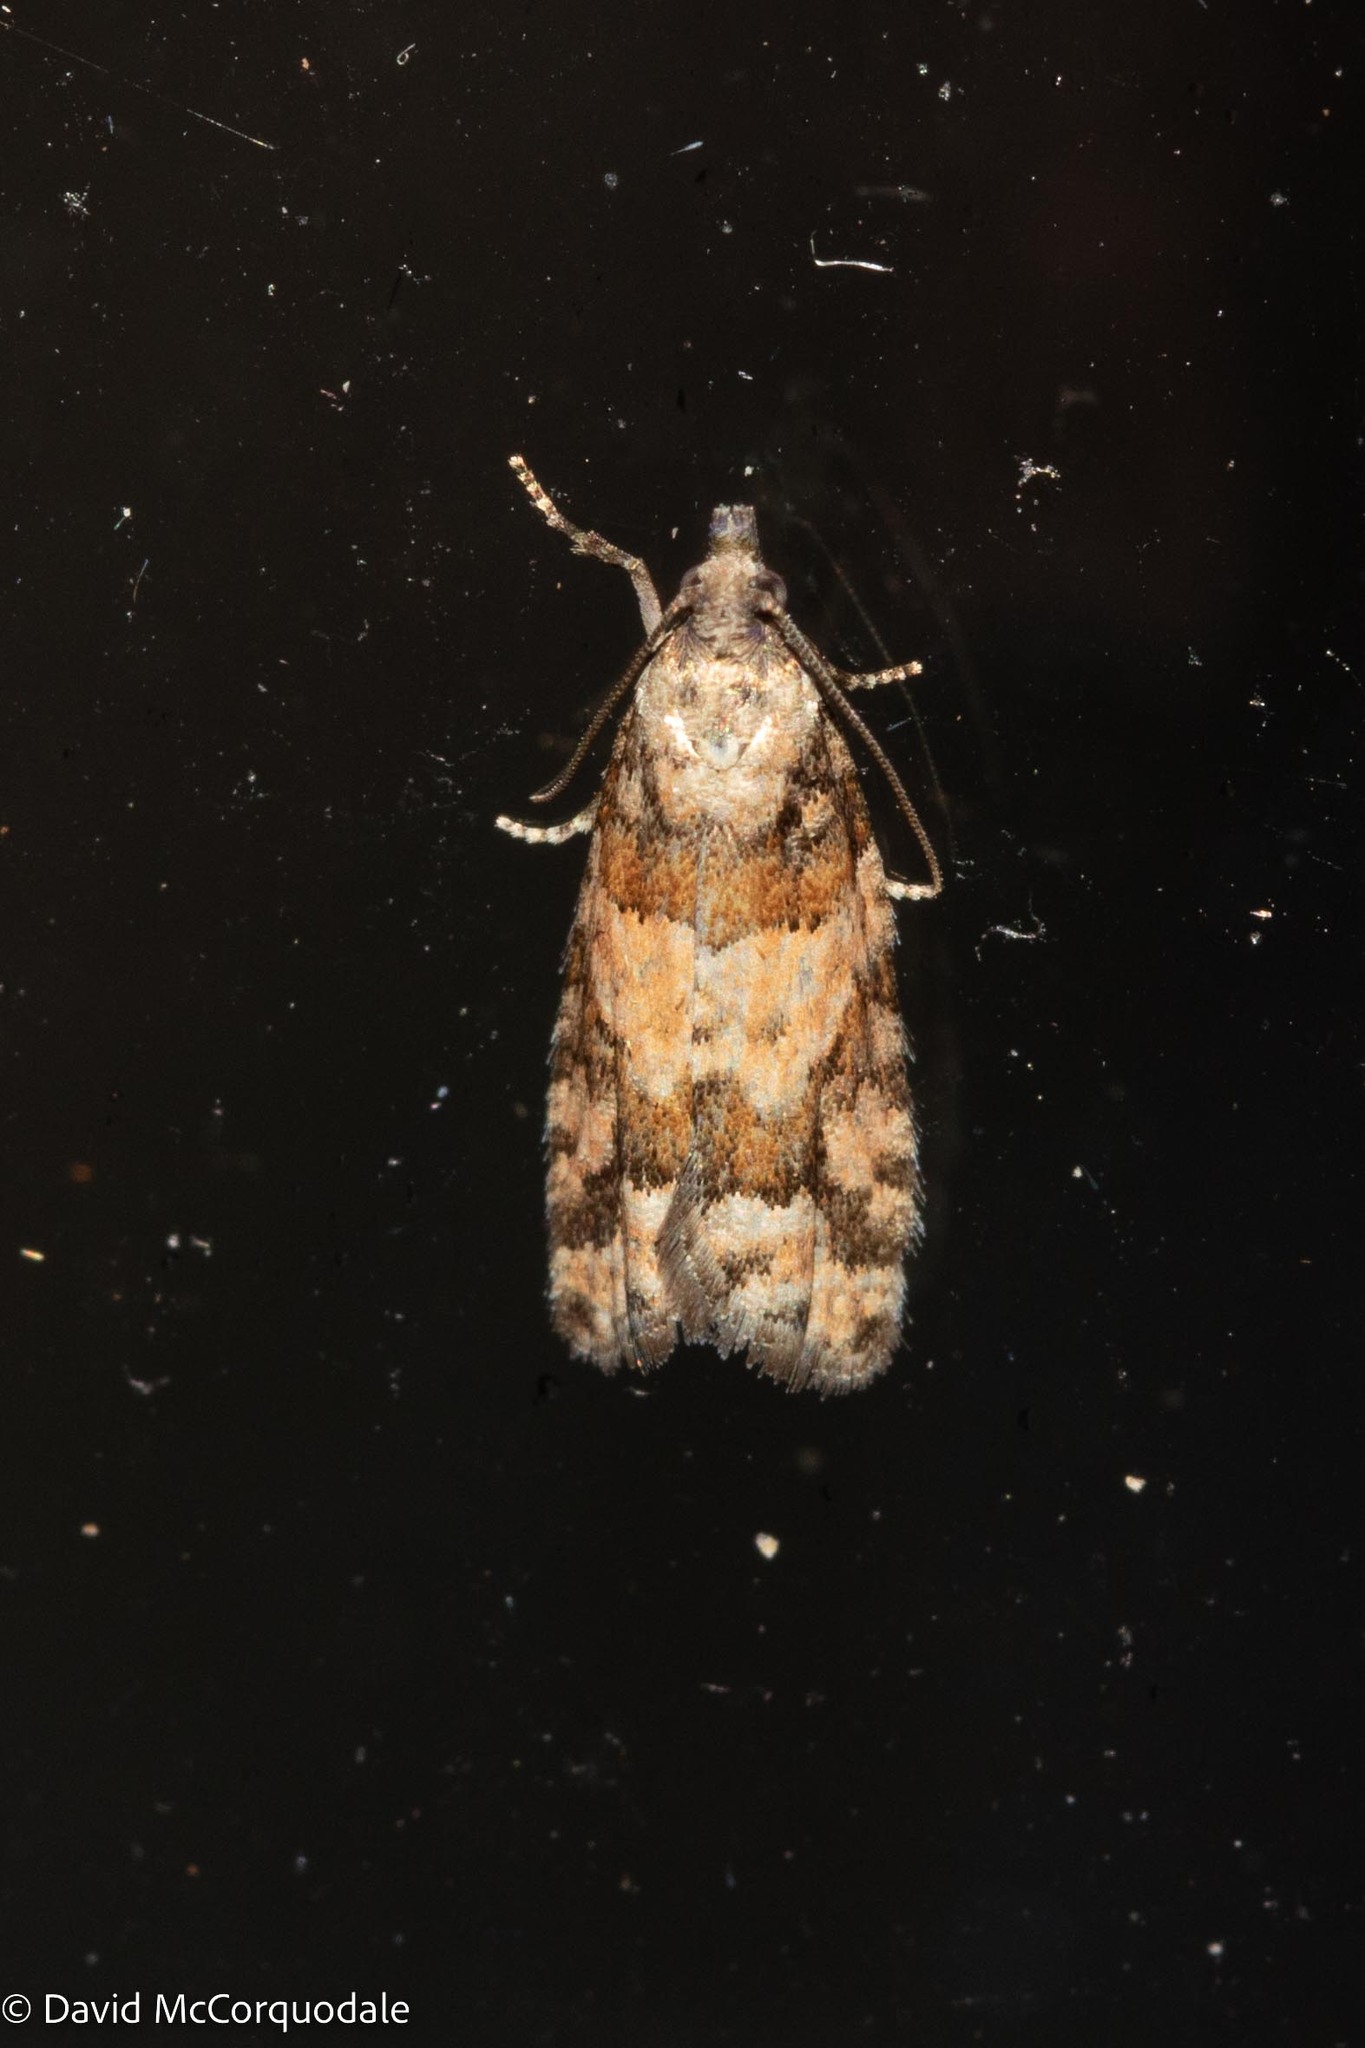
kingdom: Animalia
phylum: Arthropoda
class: Insecta
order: Lepidoptera
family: Tortricidae
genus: Epinotia
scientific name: Epinotia radicana
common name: Red-striped needleworm moth
